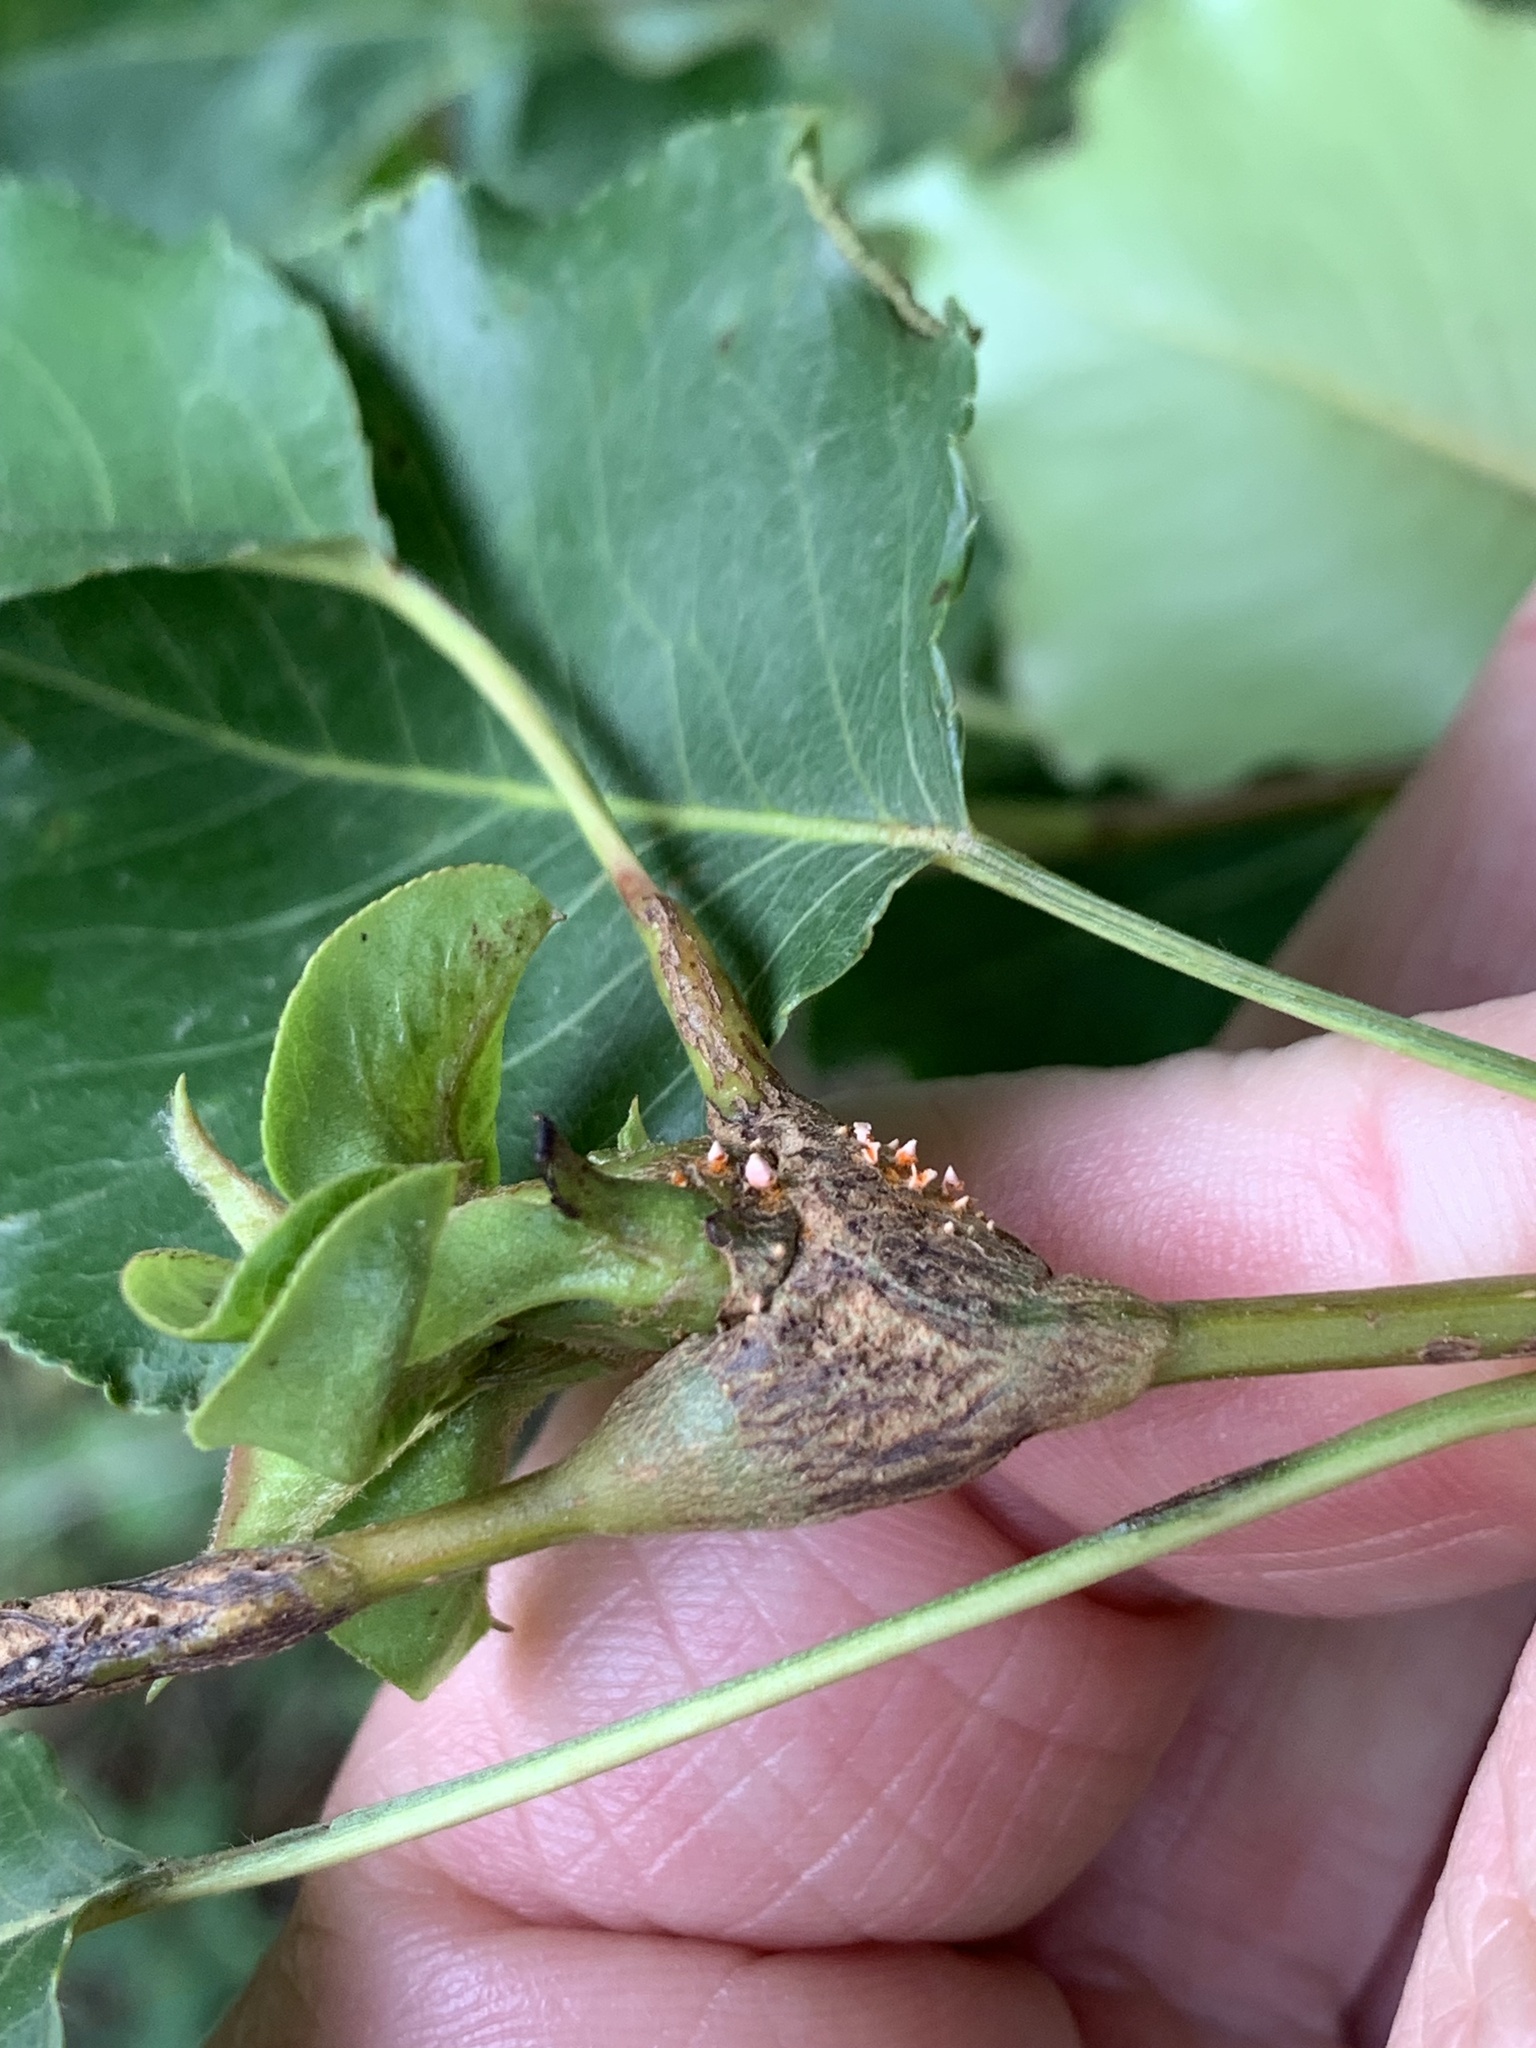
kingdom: Fungi
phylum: Basidiomycota
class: Pucciniomycetes
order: Pucciniales
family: Gymnosporangiaceae
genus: Gymnosporangium
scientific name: Gymnosporangium sabinae
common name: Pear trellis rust fungus
